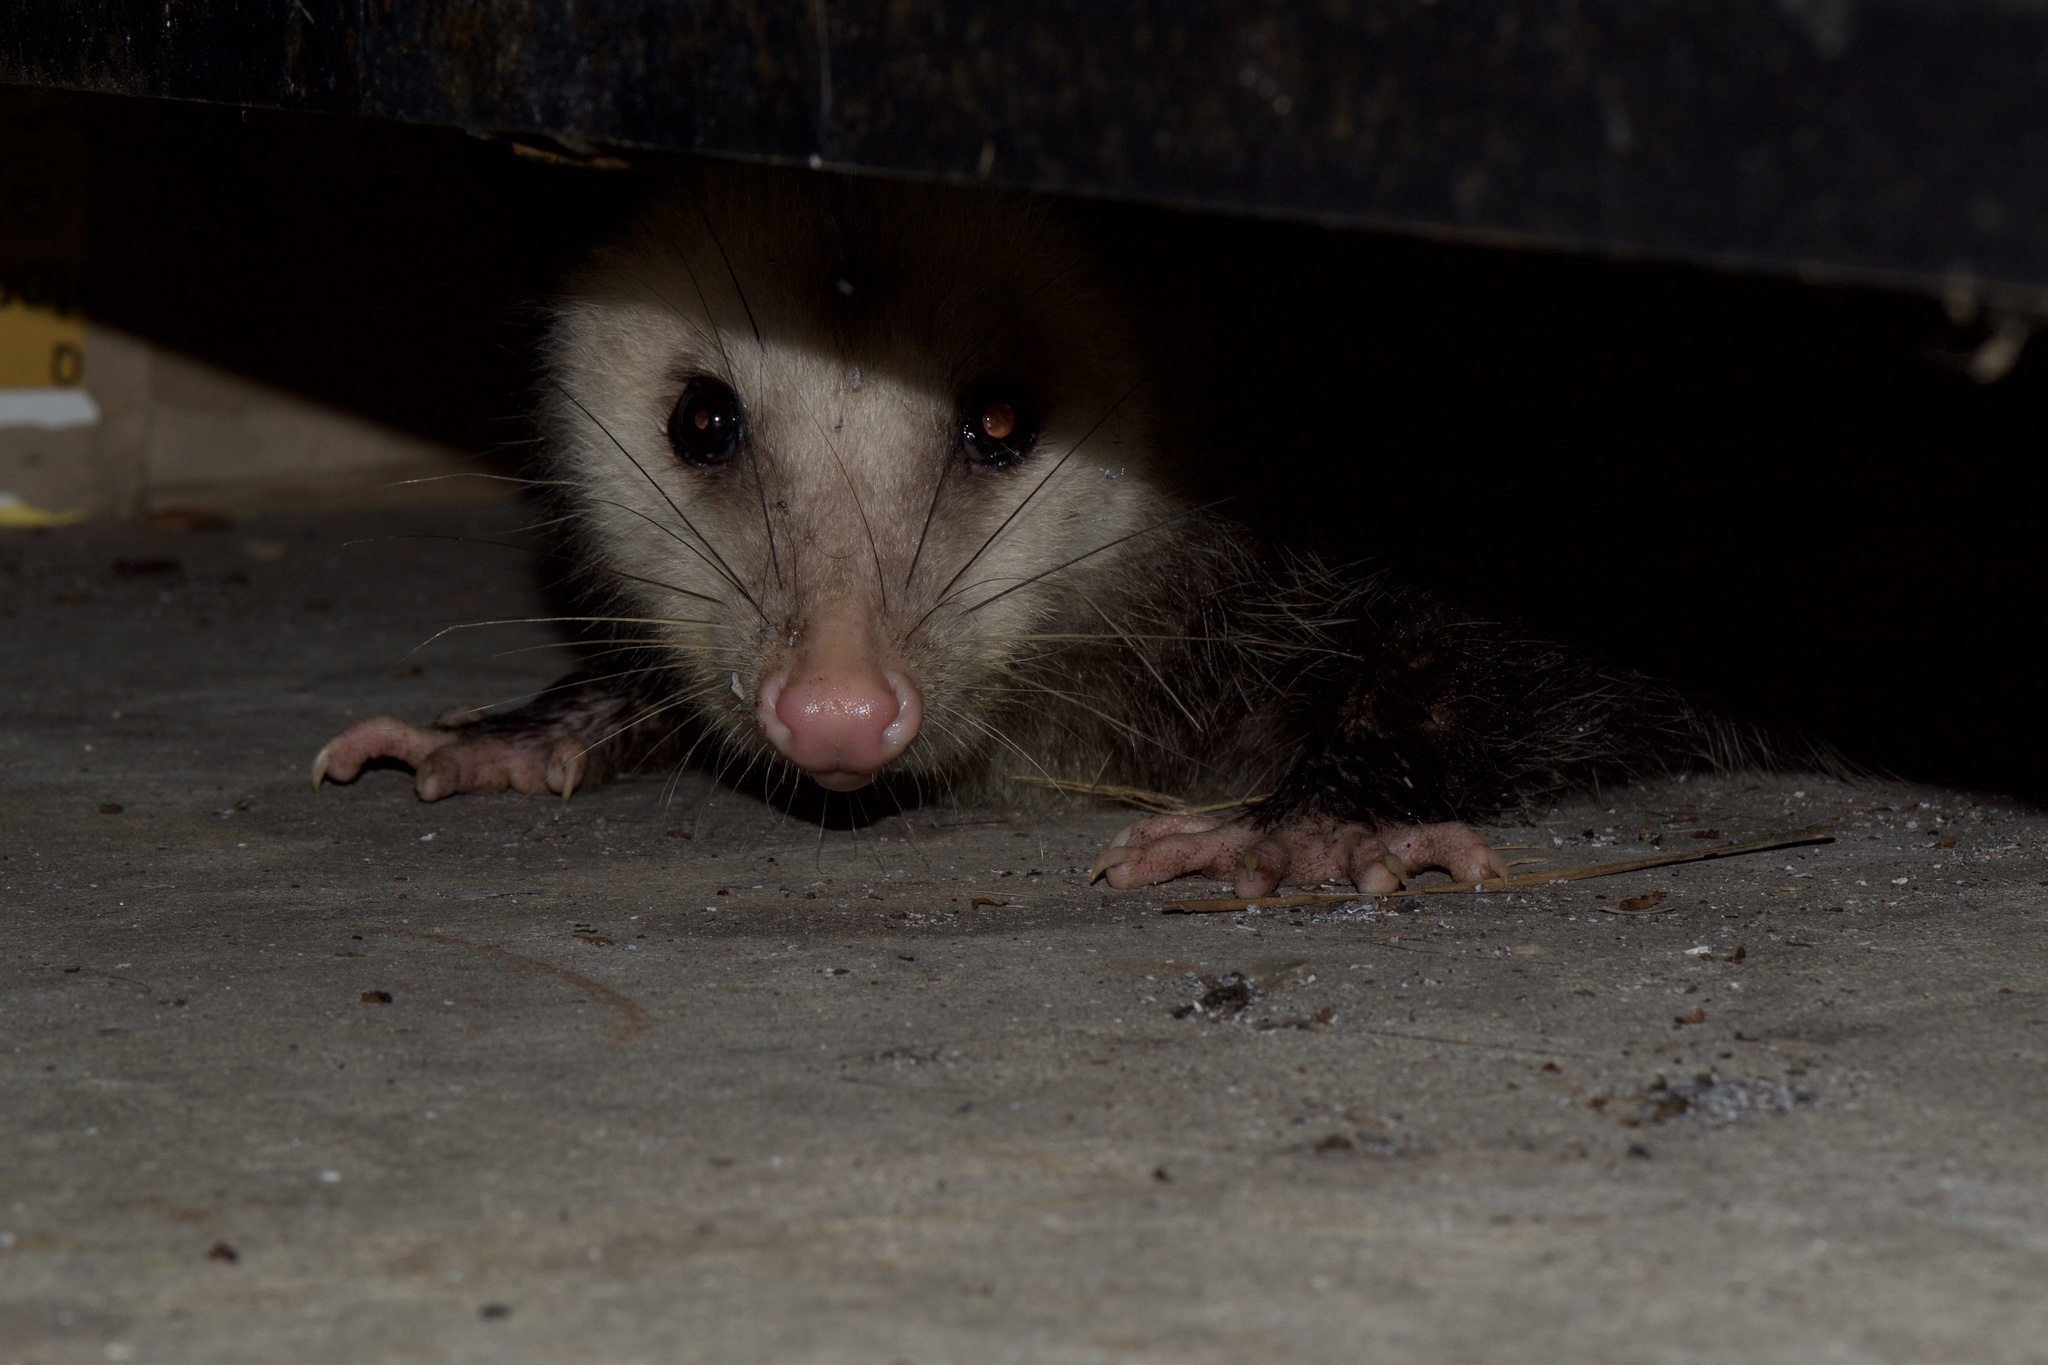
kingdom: Animalia
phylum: Chordata
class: Mammalia
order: Didelphimorphia
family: Didelphidae
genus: Didelphis
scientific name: Didelphis virginiana
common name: Virginia opossum
